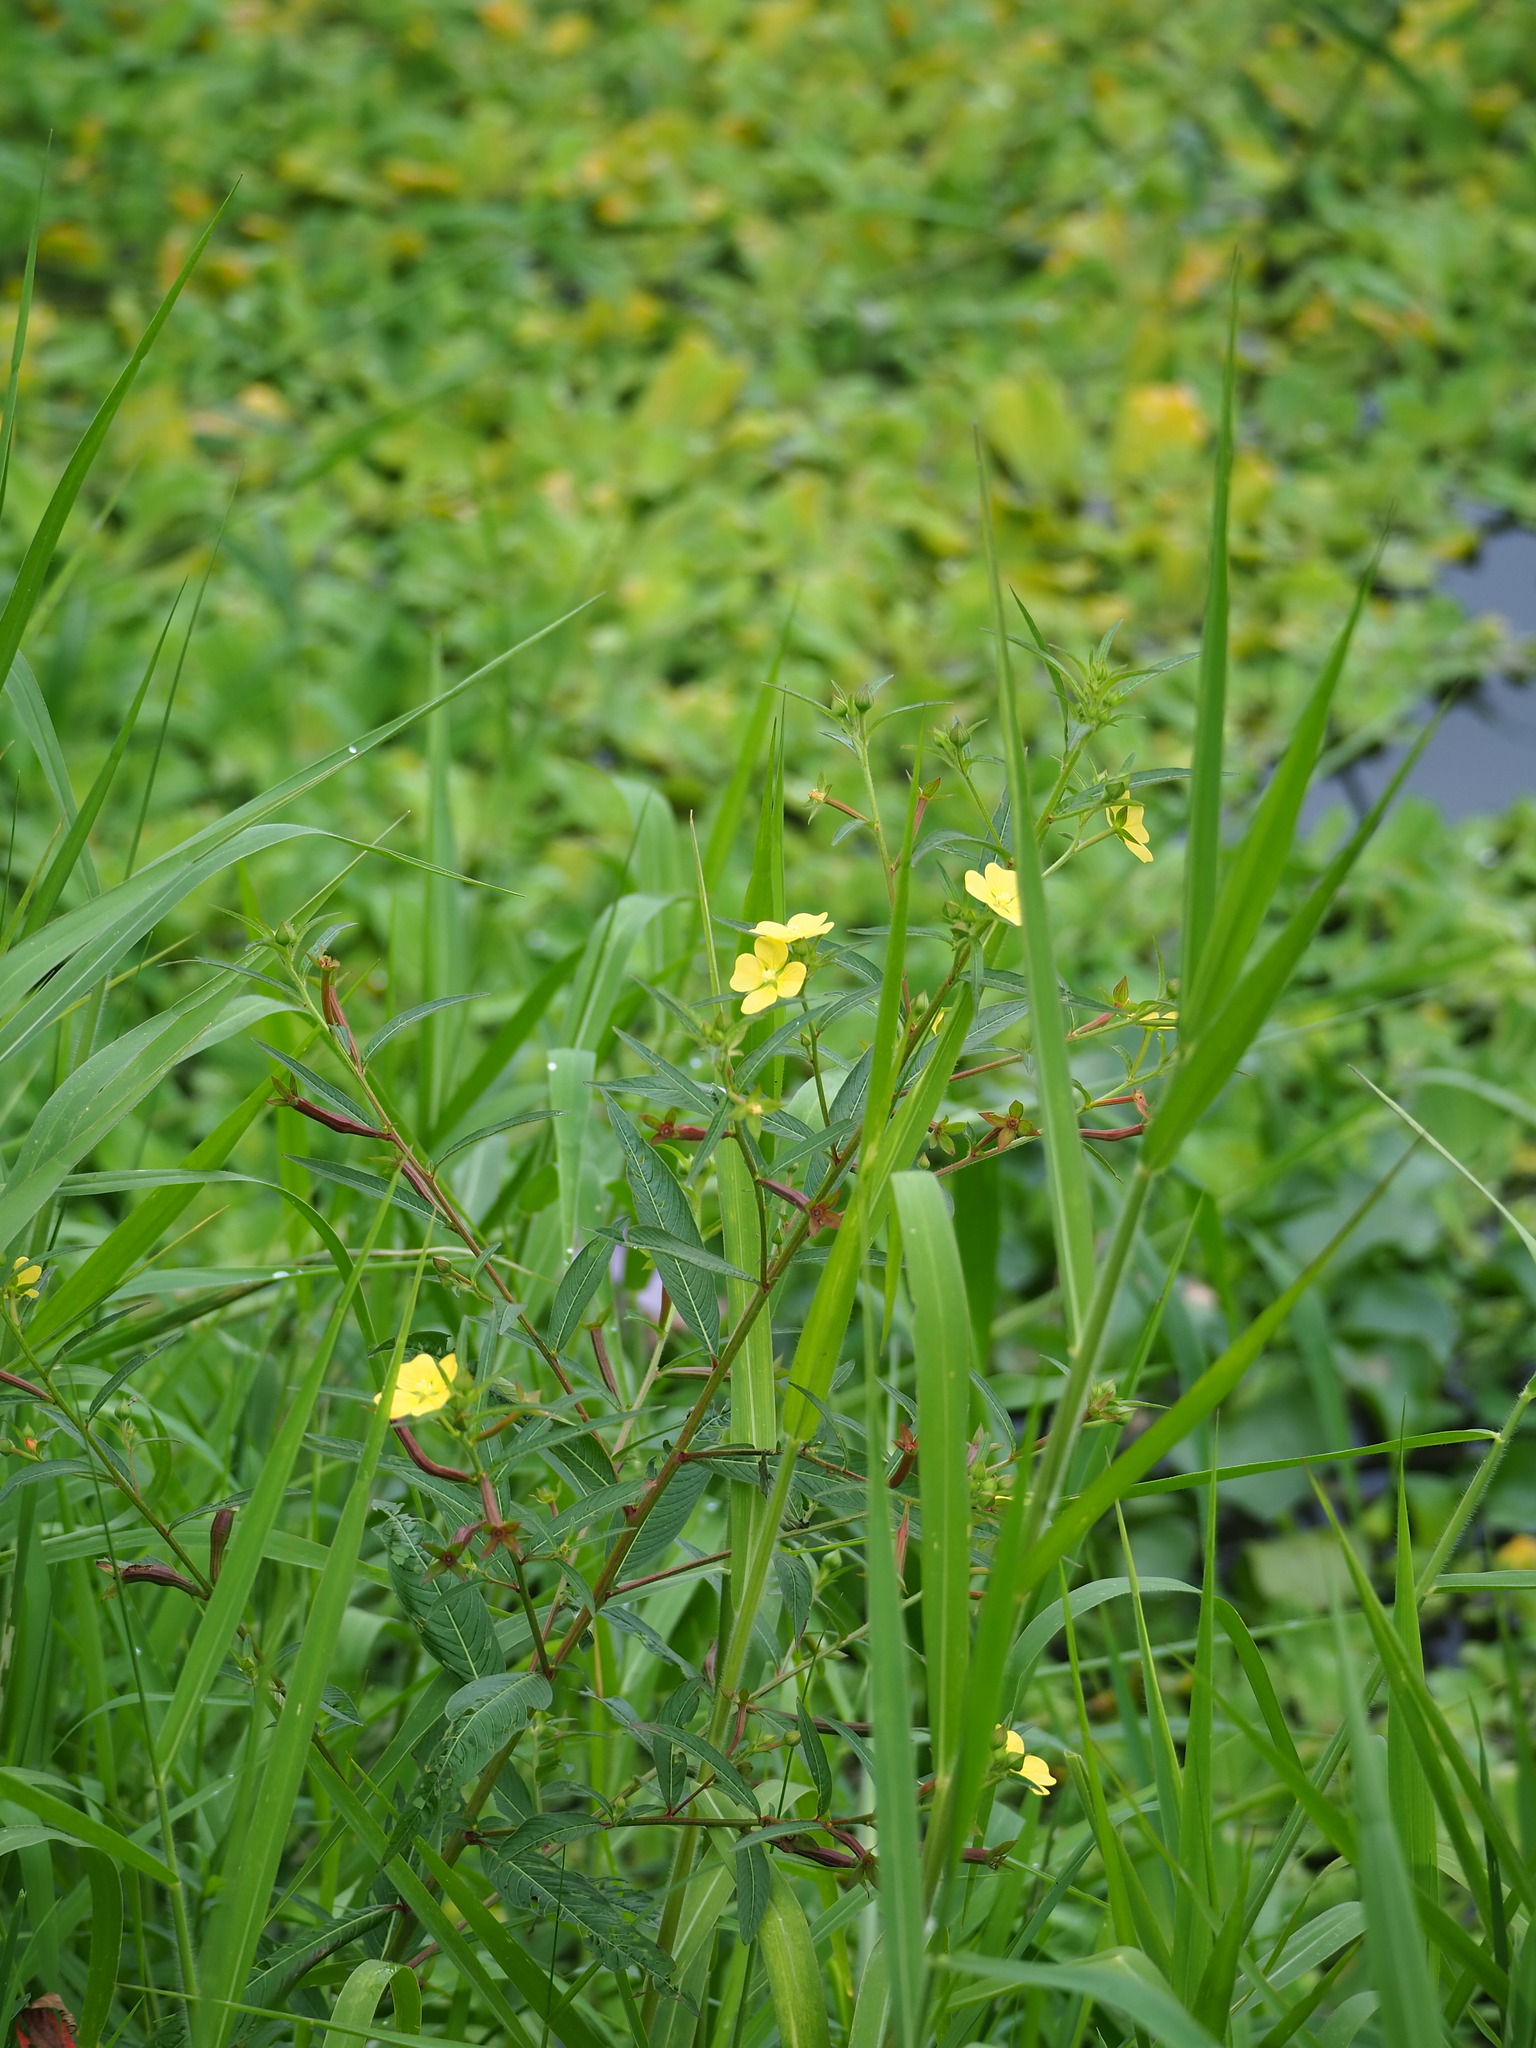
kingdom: Plantae
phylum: Tracheophyta
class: Magnoliopsida
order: Myrtales
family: Onagraceae
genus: Ludwigia
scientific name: Ludwigia octovalvis
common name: Water-primrose
